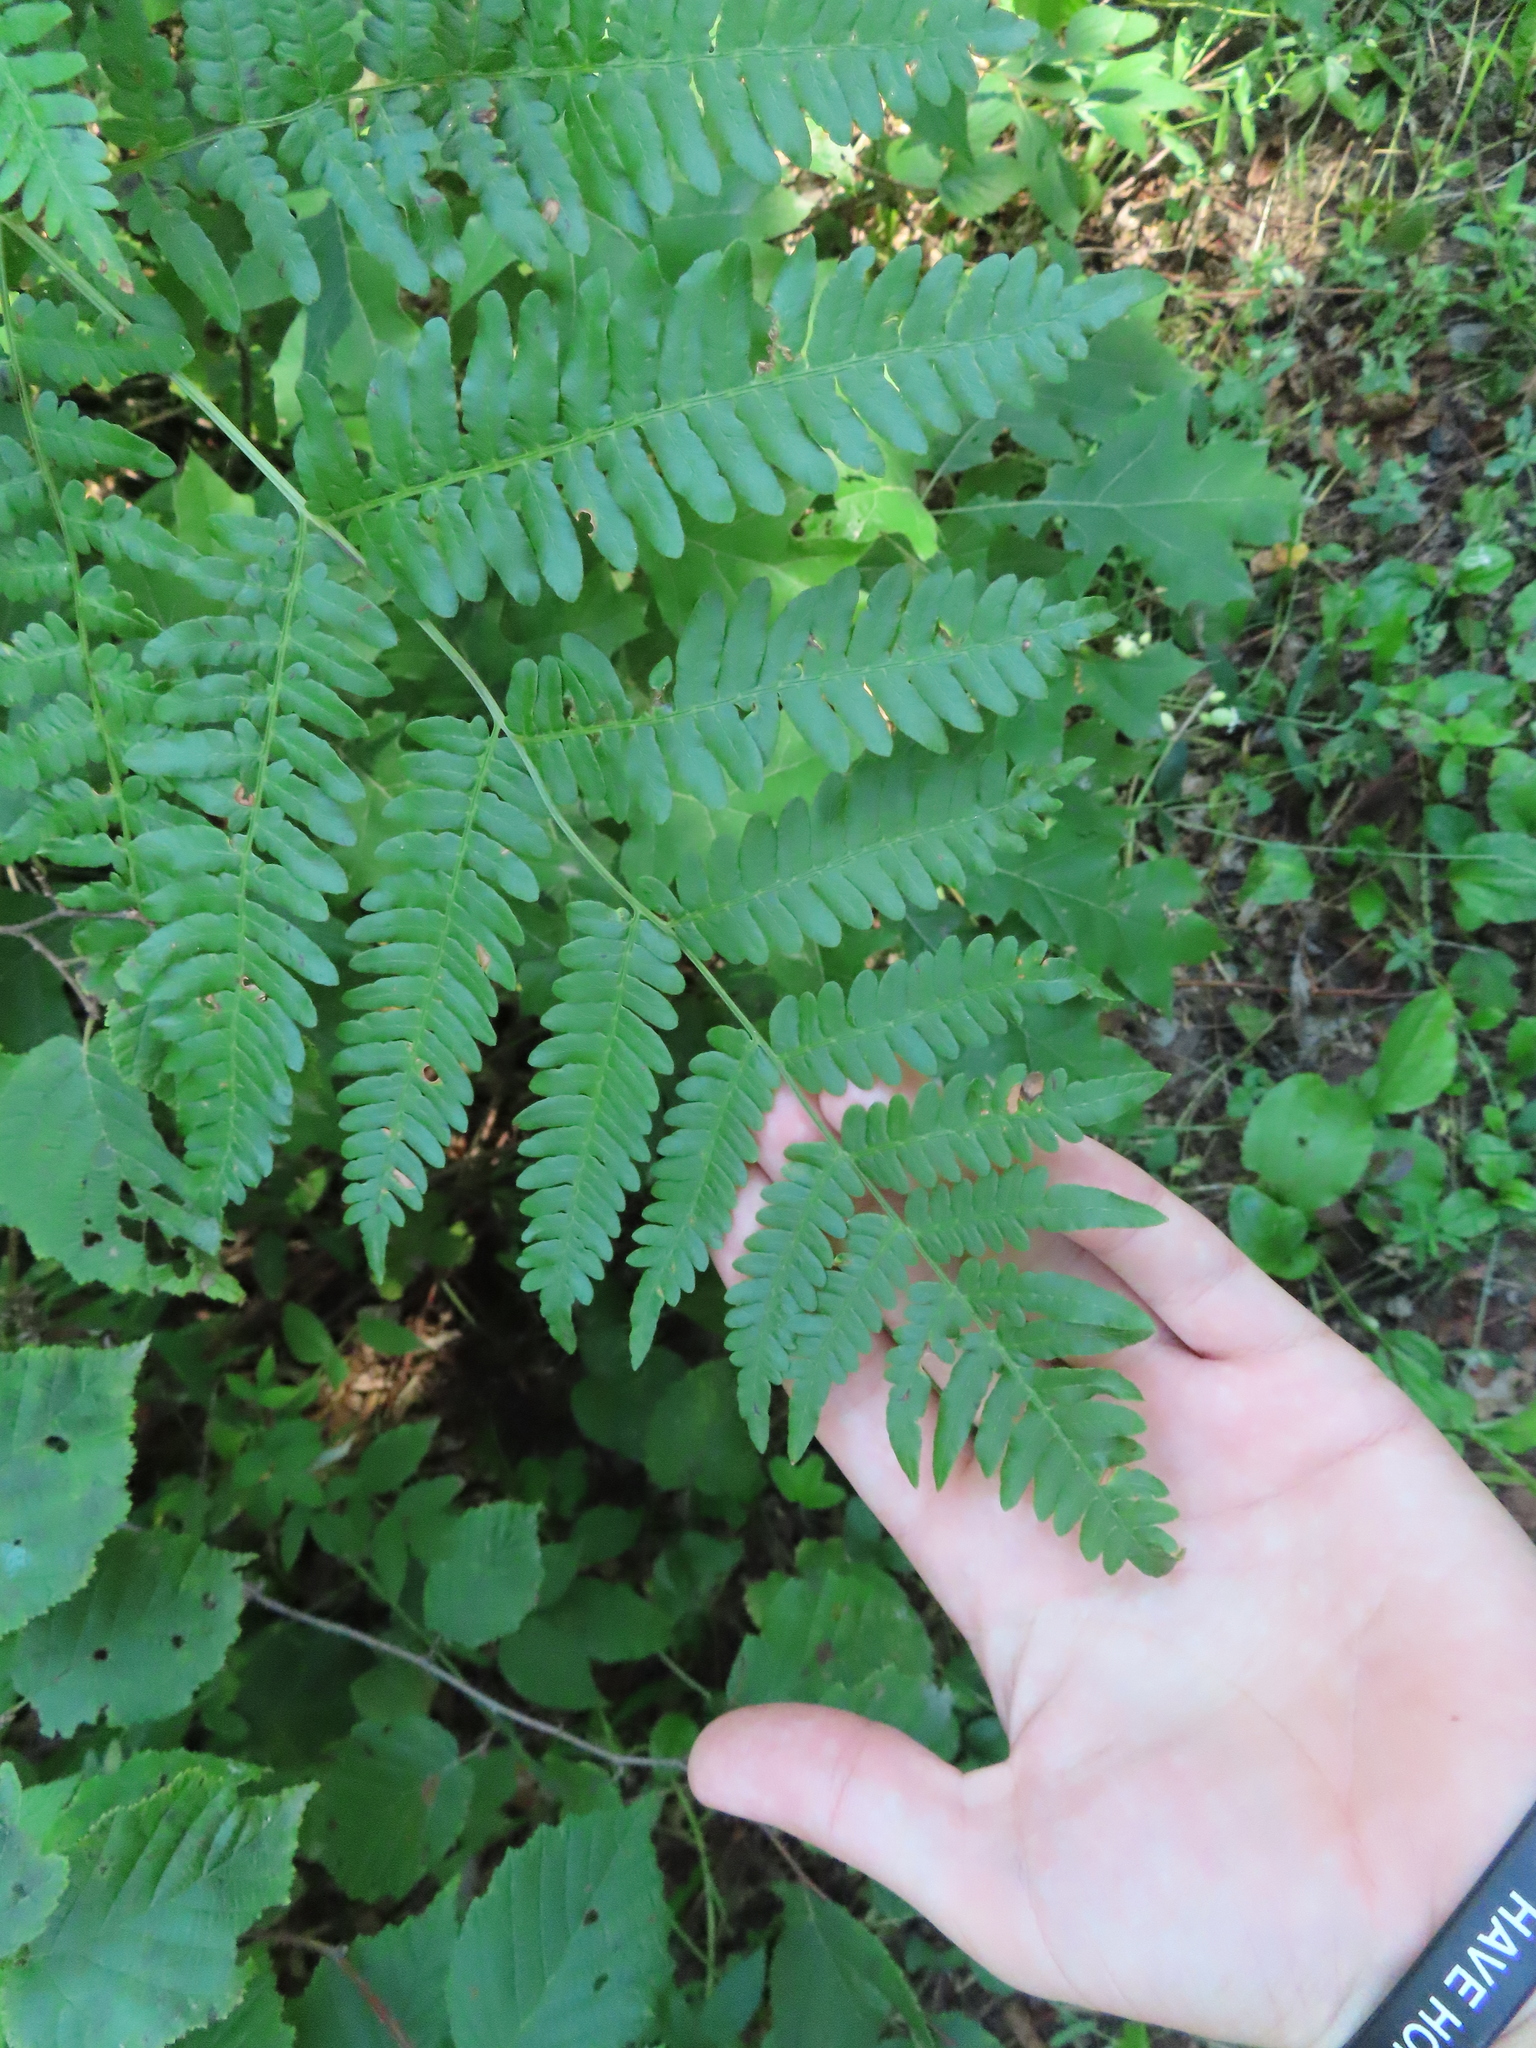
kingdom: Plantae
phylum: Tracheophyta
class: Polypodiopsida
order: Polypodiales
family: Dennstaedtiaceae
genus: Pteridium
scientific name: Pteridium aquilinum
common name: Bracken
